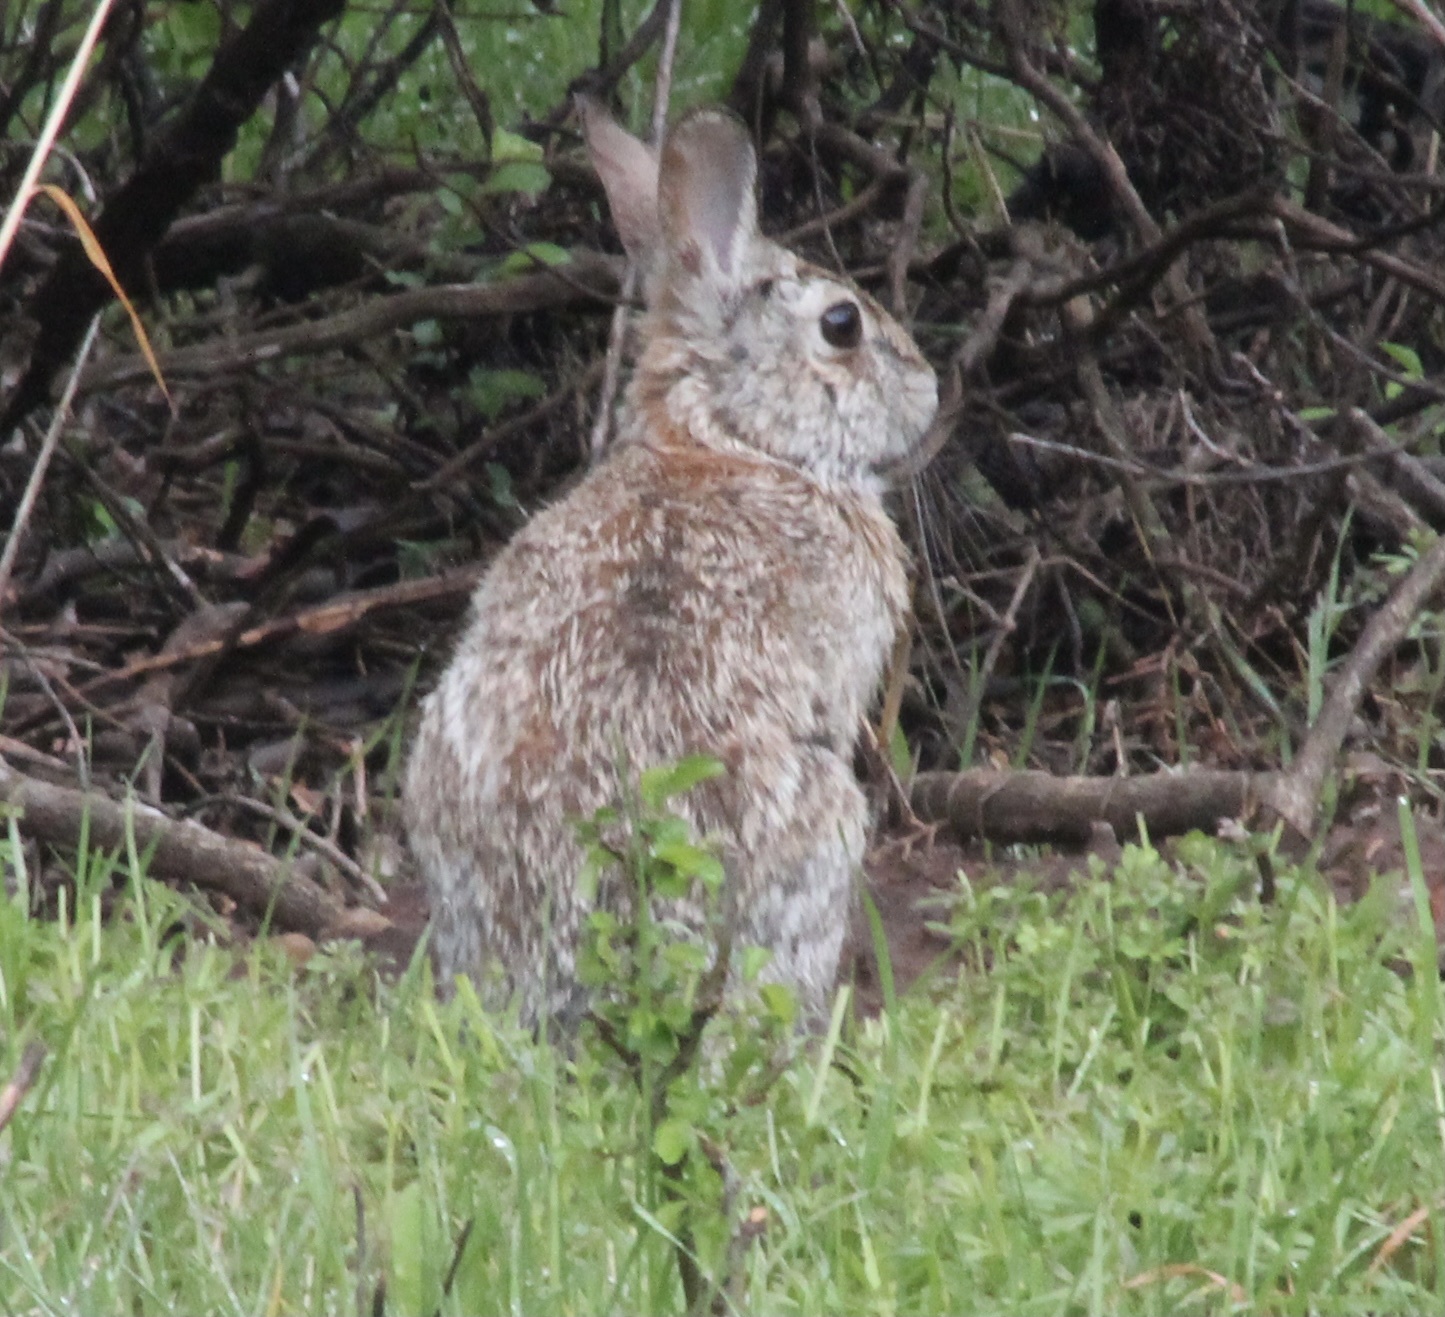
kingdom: Animalia
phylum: Chordata
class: Mammalia
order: Lagomorpha
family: Leporidae
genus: Sylvilagus
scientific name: Sylvilagus floridanus
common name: Eastern cottontail
